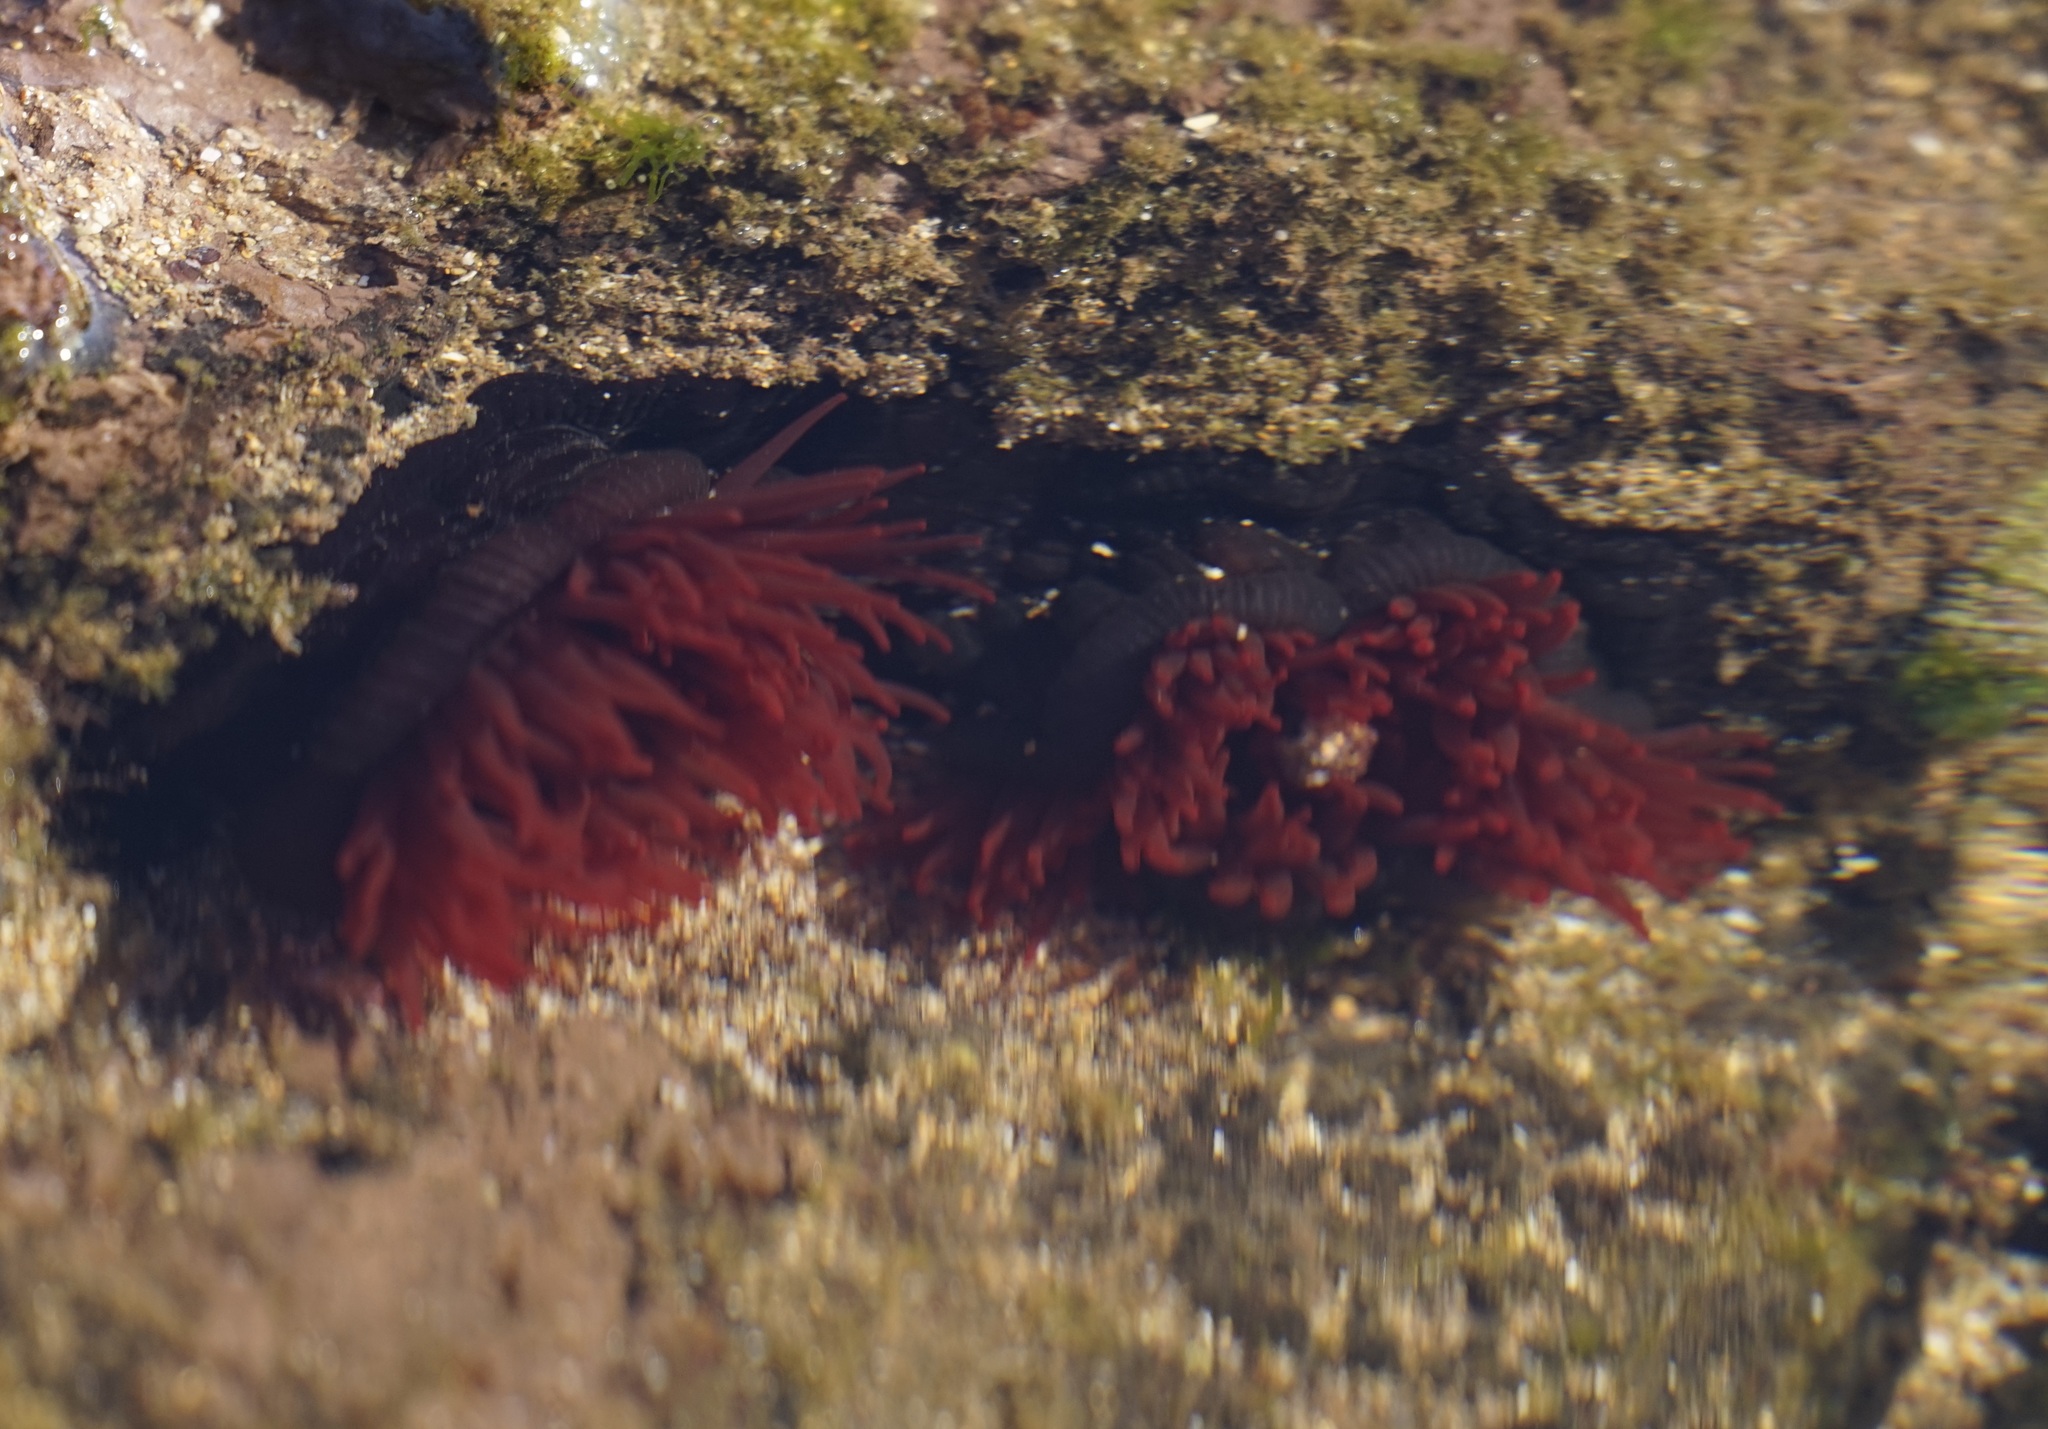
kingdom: Animalia
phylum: Cnidaria
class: Anthozoa
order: Actiniaria
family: Actiniidae
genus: Actinia
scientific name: Actinia tenebrosa
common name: Waratah anemone
